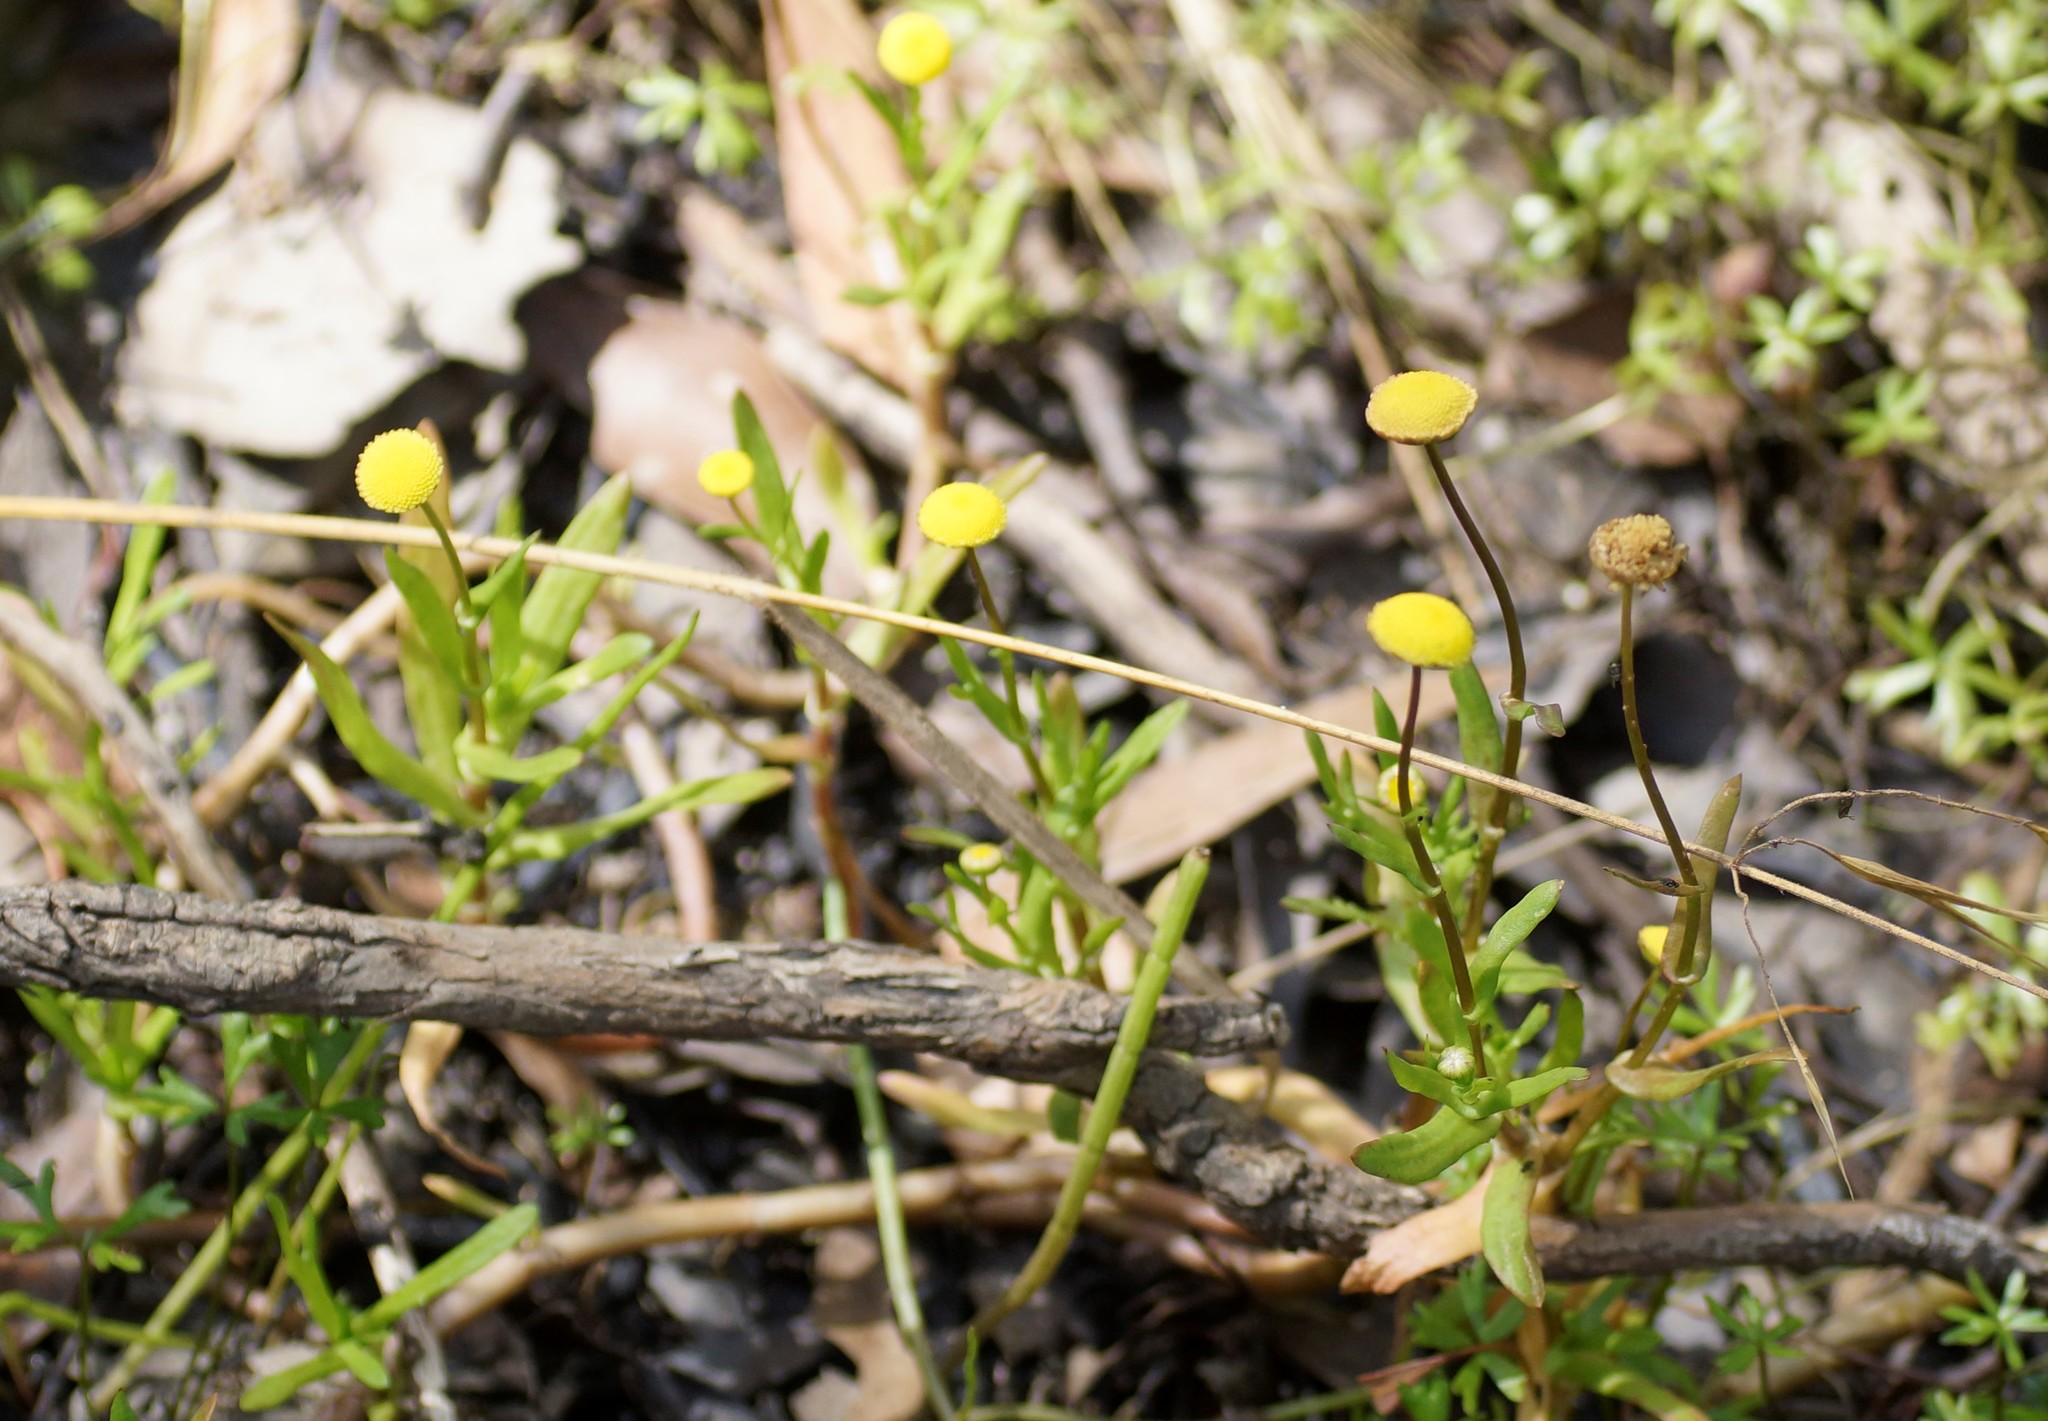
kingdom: Plantae
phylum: Tracheophyta
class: Magnoliopsida
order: Asterales
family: Asteraceae
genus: Cotula
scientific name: Cotula coronopifolia
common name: Buttonweed
